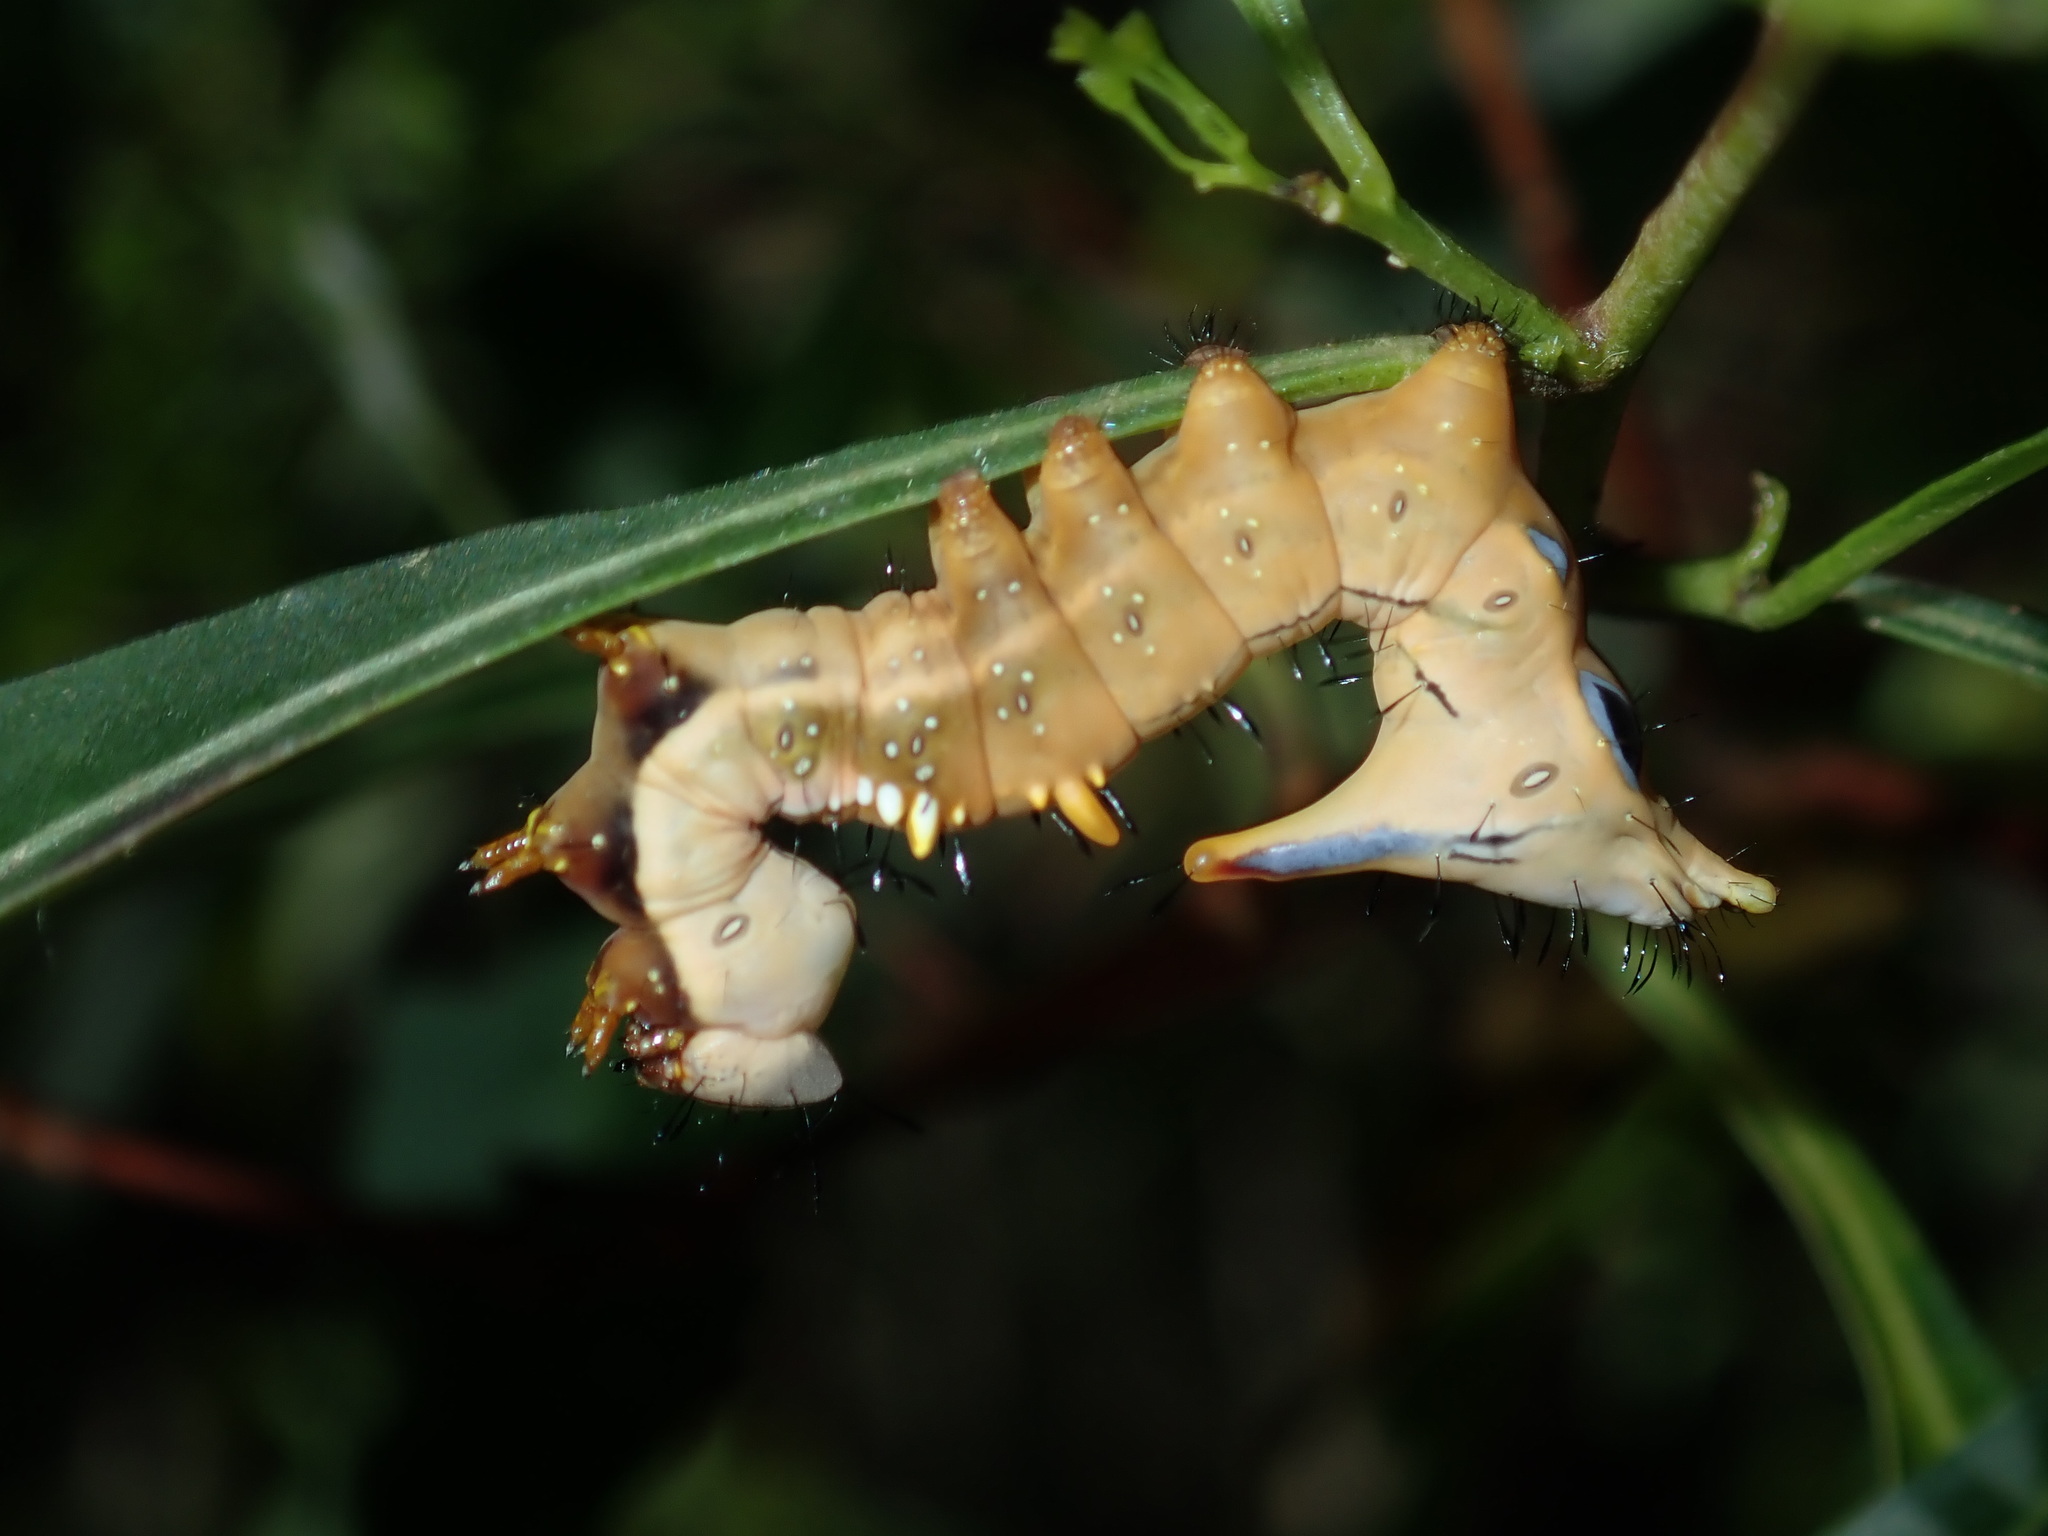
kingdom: Animalia
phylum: Arthropoda
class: Insecta
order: Lepidoptera
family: Notodontidae
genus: Neola
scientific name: Neola semiaurata
